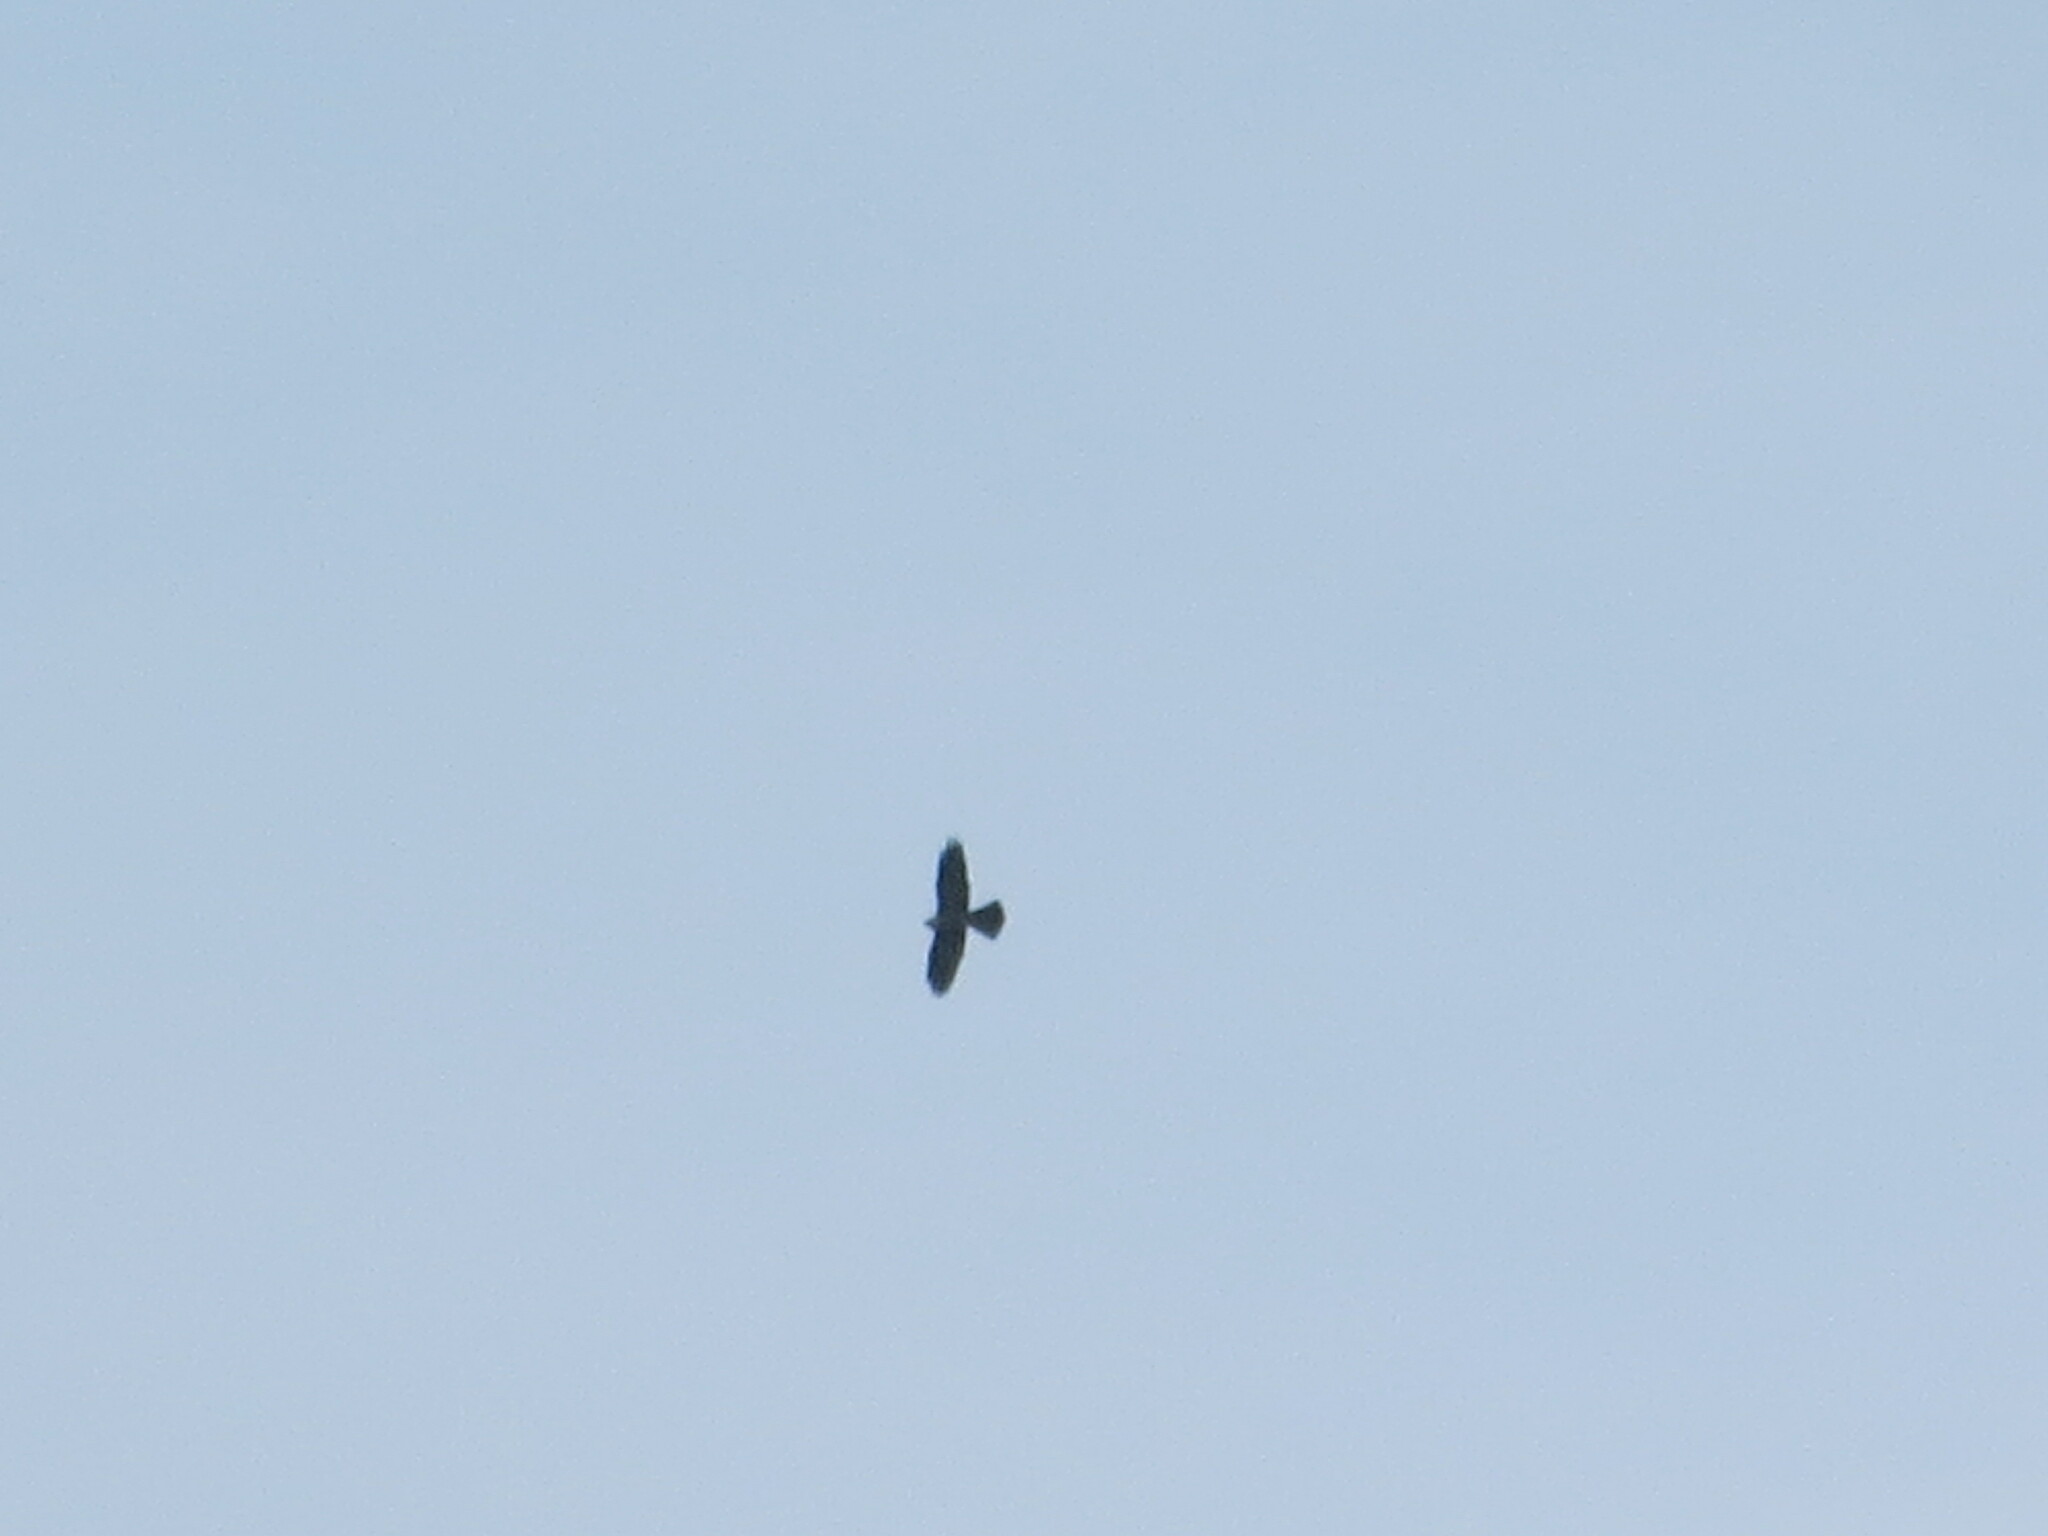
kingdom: Animalia
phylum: Chordata
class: Aves
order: Accipitriformes
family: Accipitridae
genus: Ictinia
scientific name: Ictinia mississippiensis
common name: Mississippi kite
